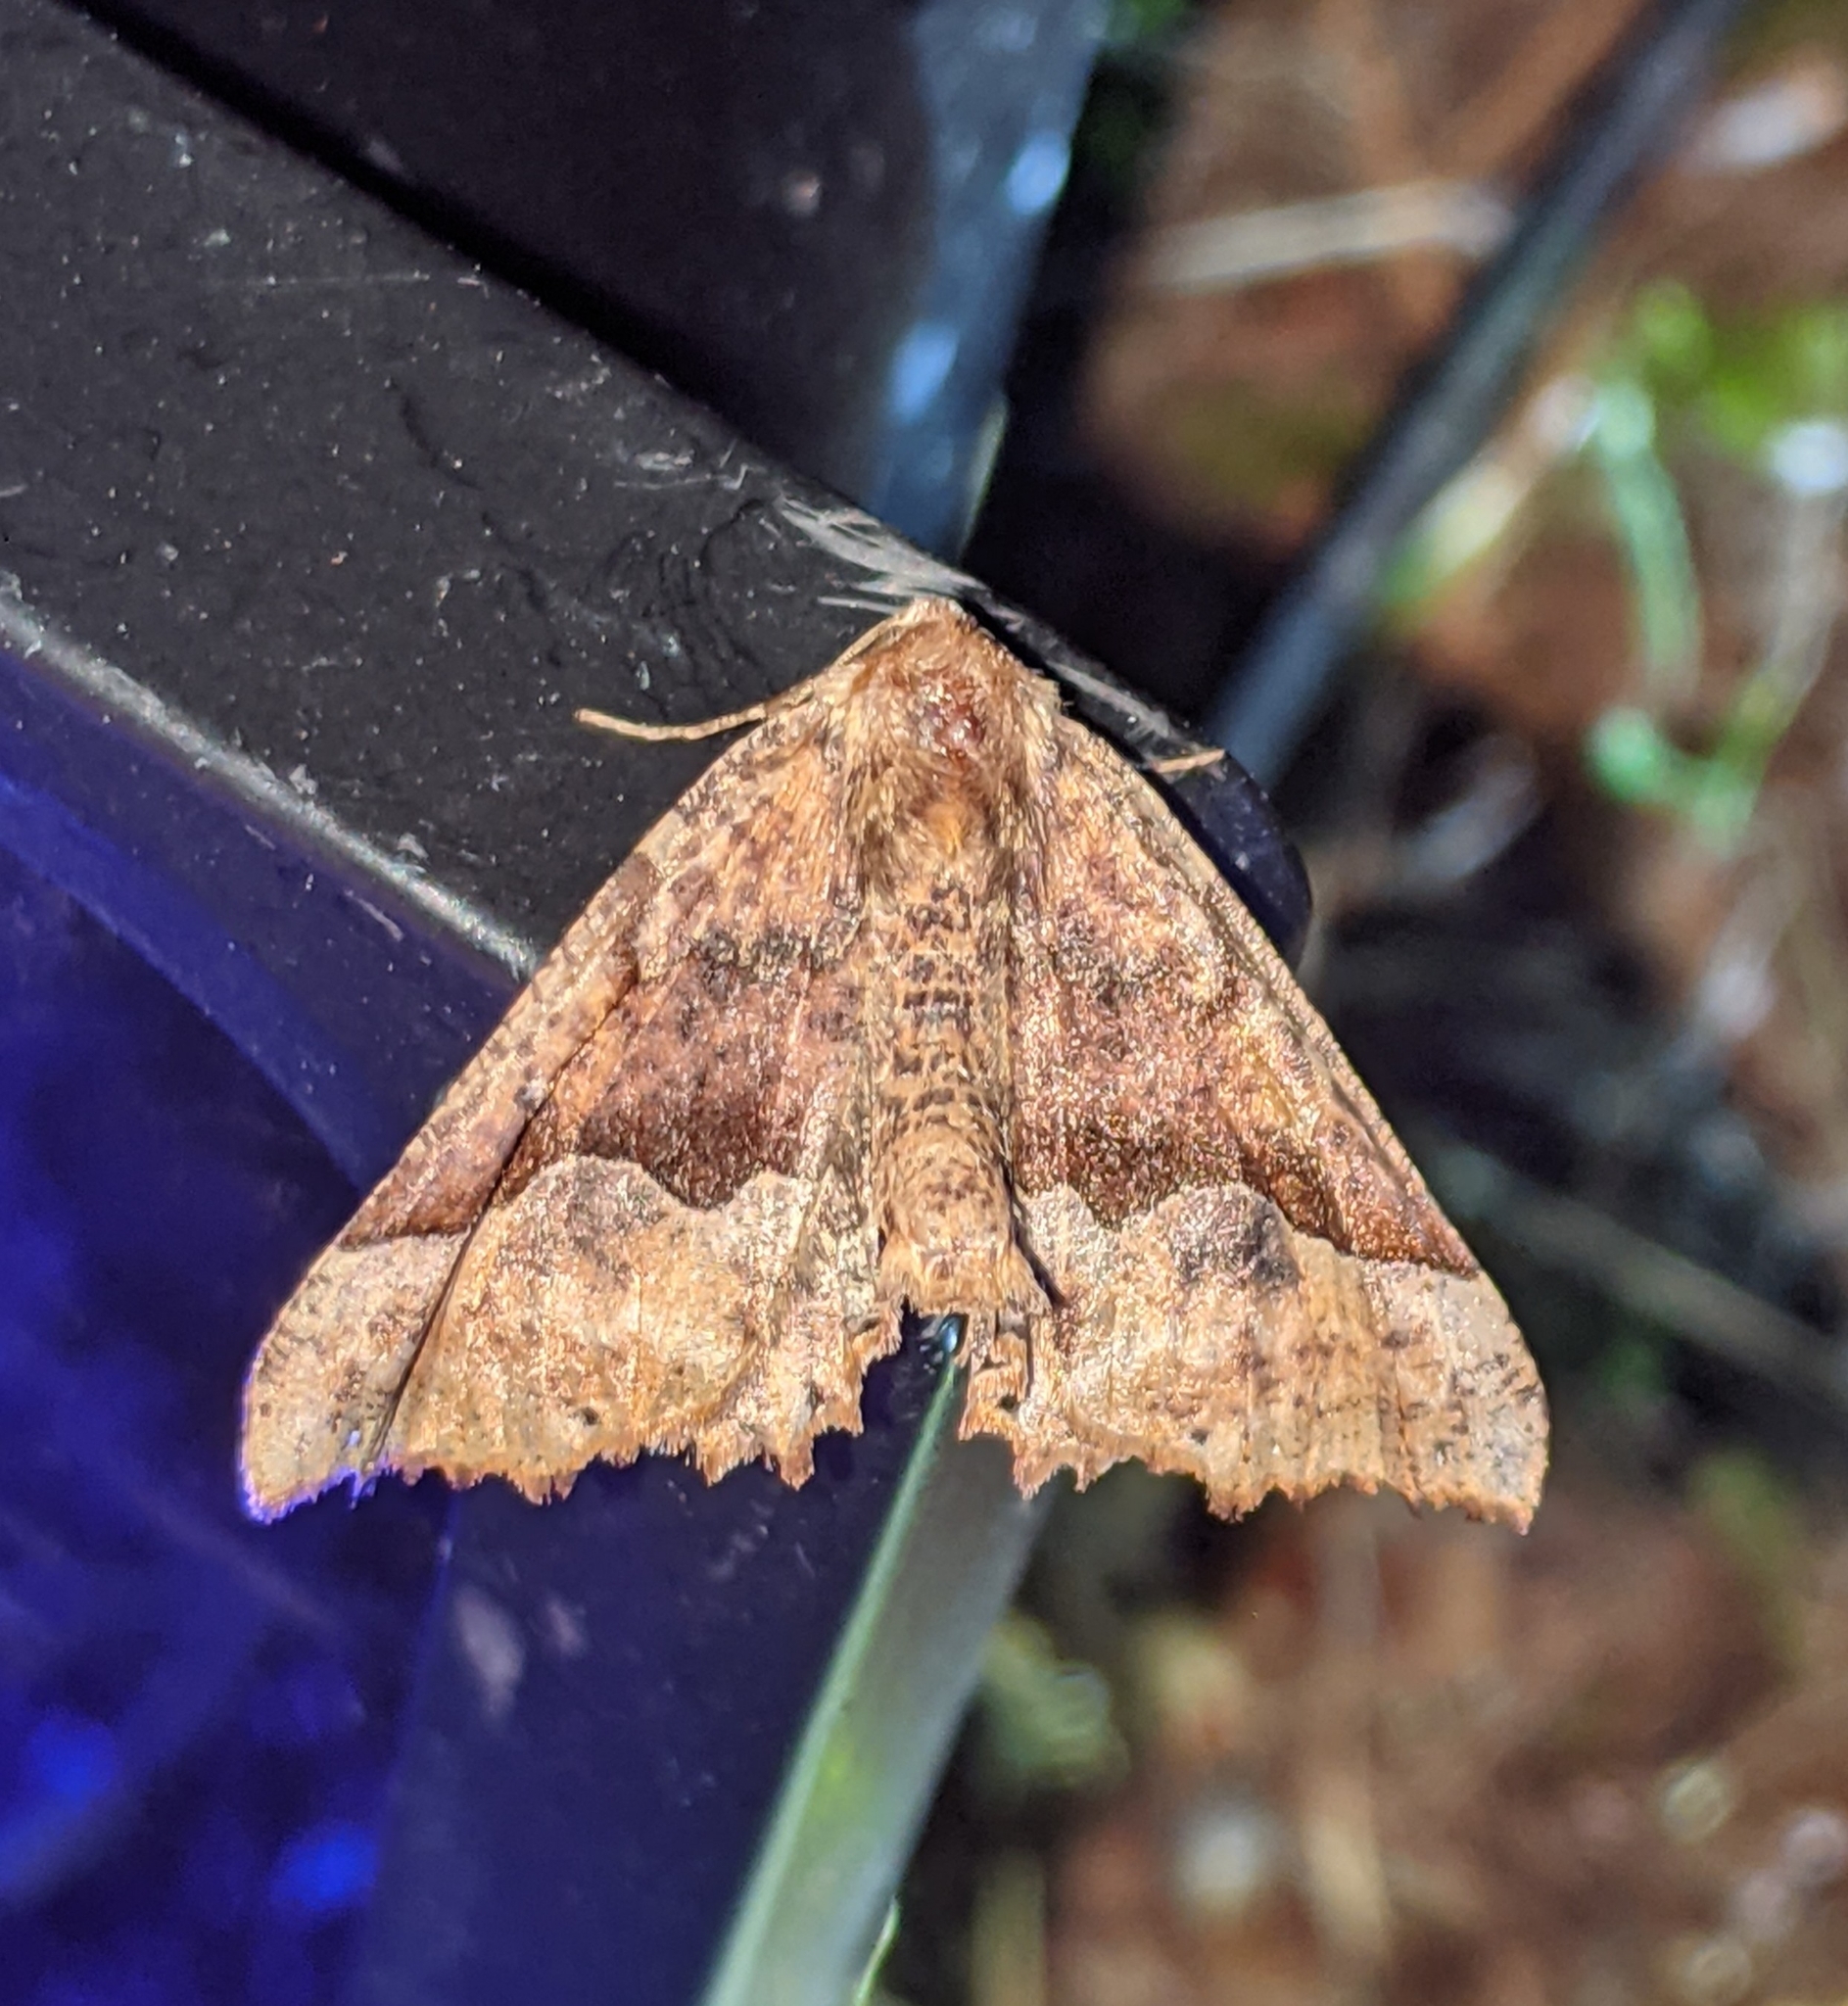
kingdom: Animalia
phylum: Arthropoda
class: Insecta
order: Lepidoptera
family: Geometridae
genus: Pero
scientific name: Pero morrisonaria
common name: Morrison's pero
